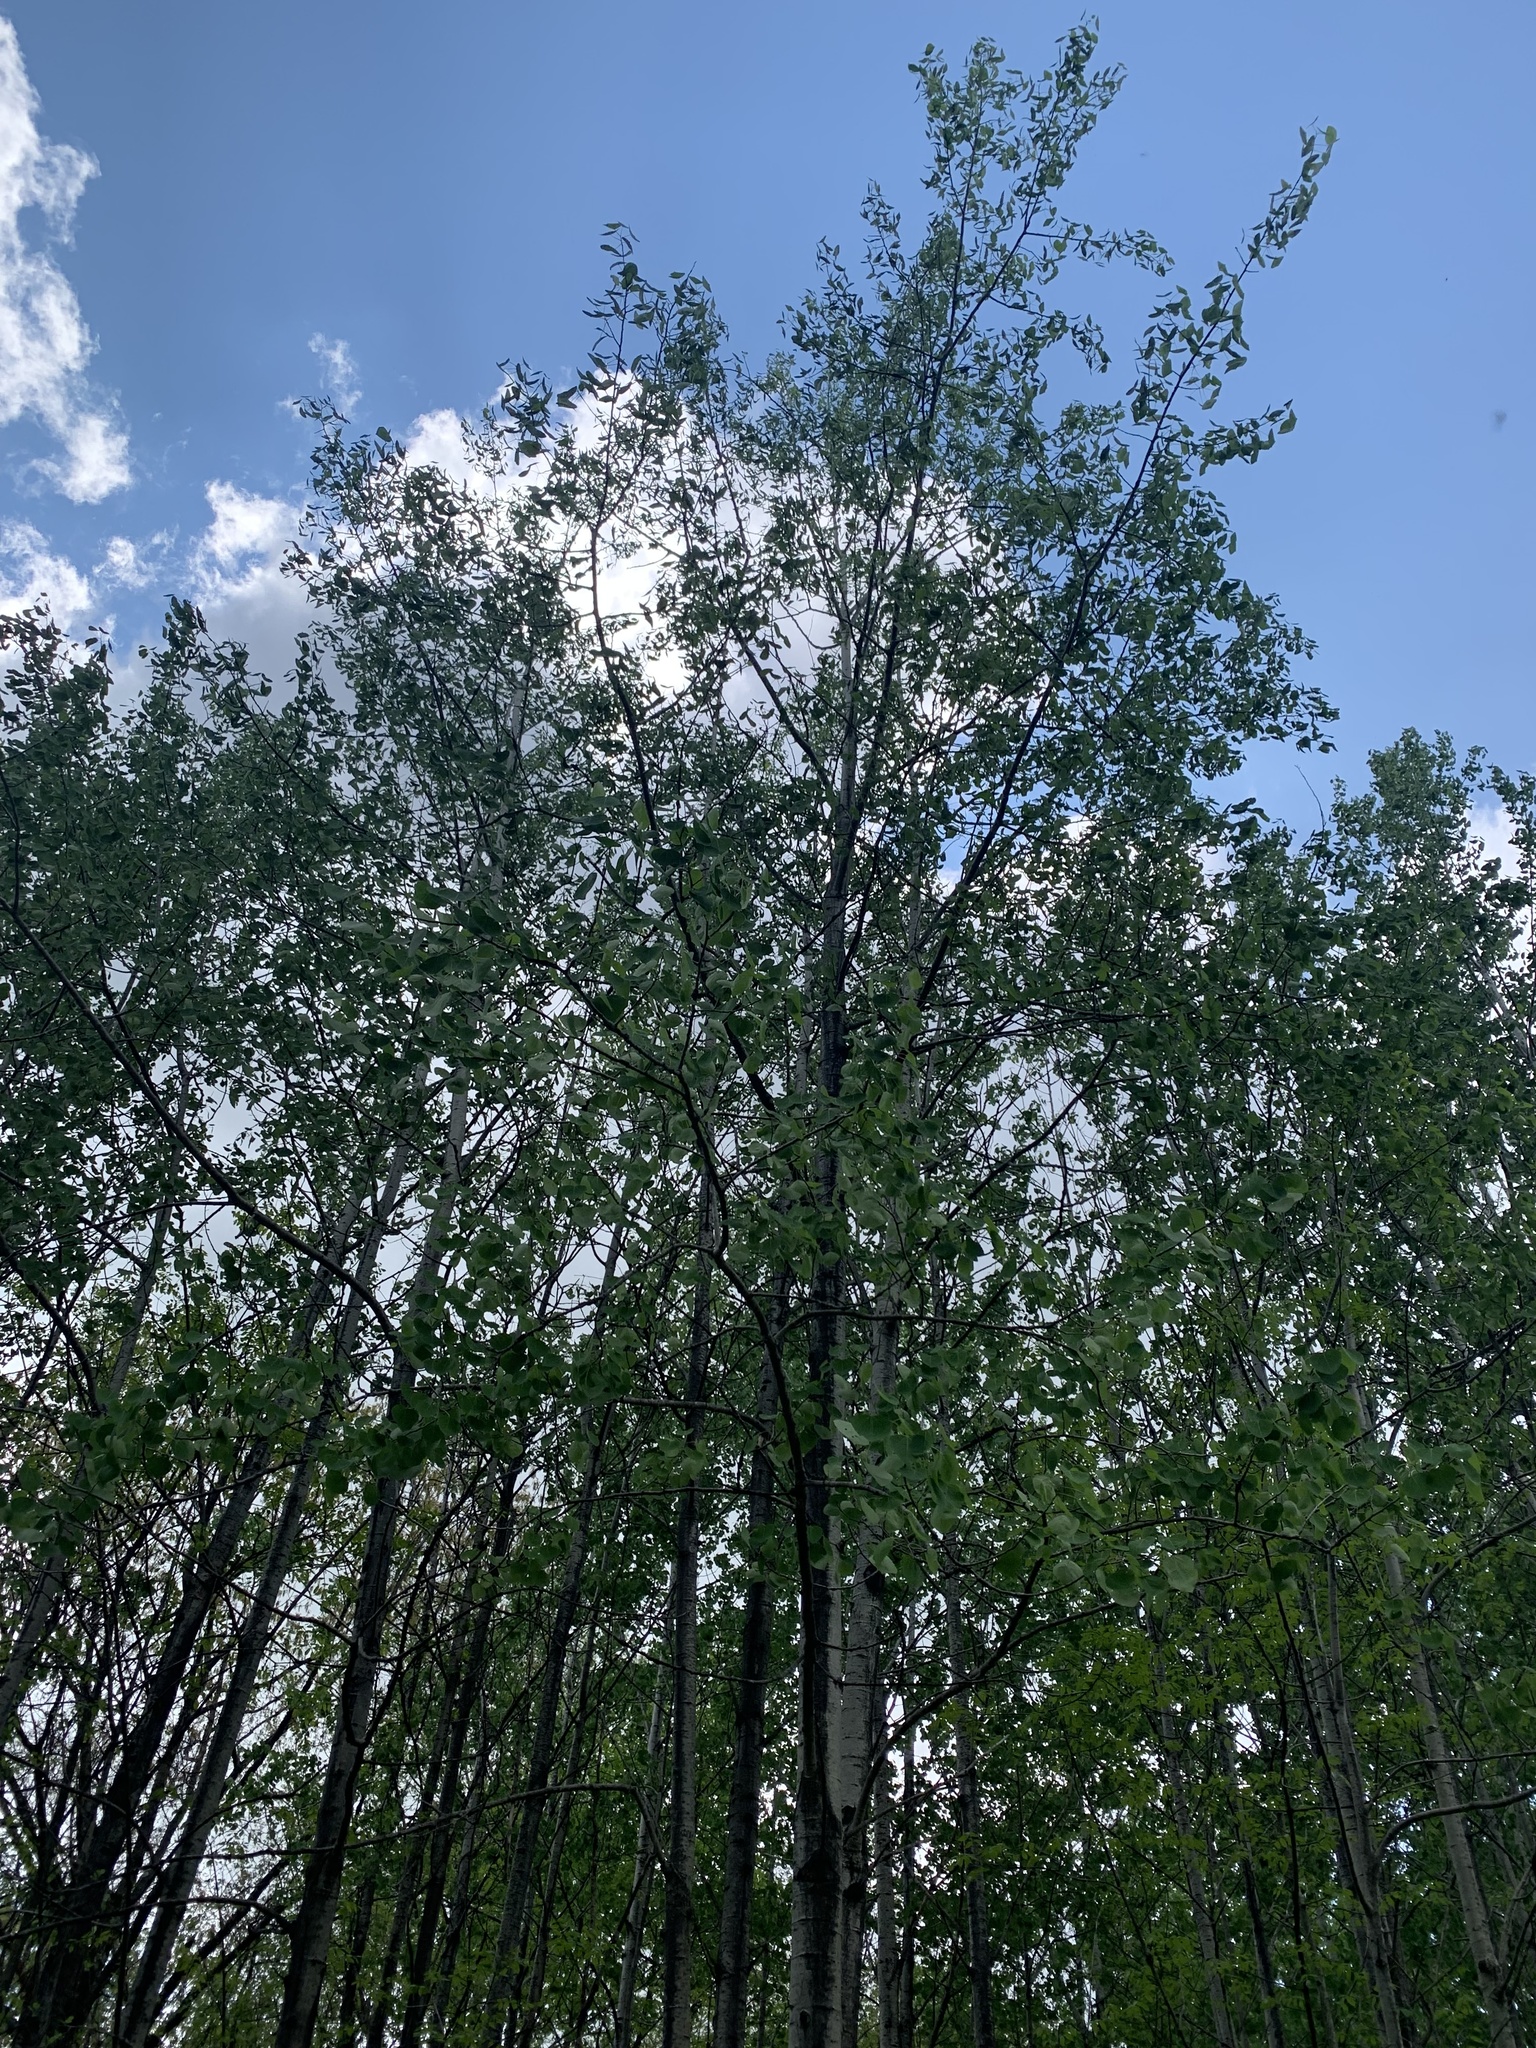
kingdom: Plantae
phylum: Tracheophyta
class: Magnoliopsida
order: Malpighiales
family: Salicaceae
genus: Populus
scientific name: Populus tremuloides
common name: Quaking aspen
